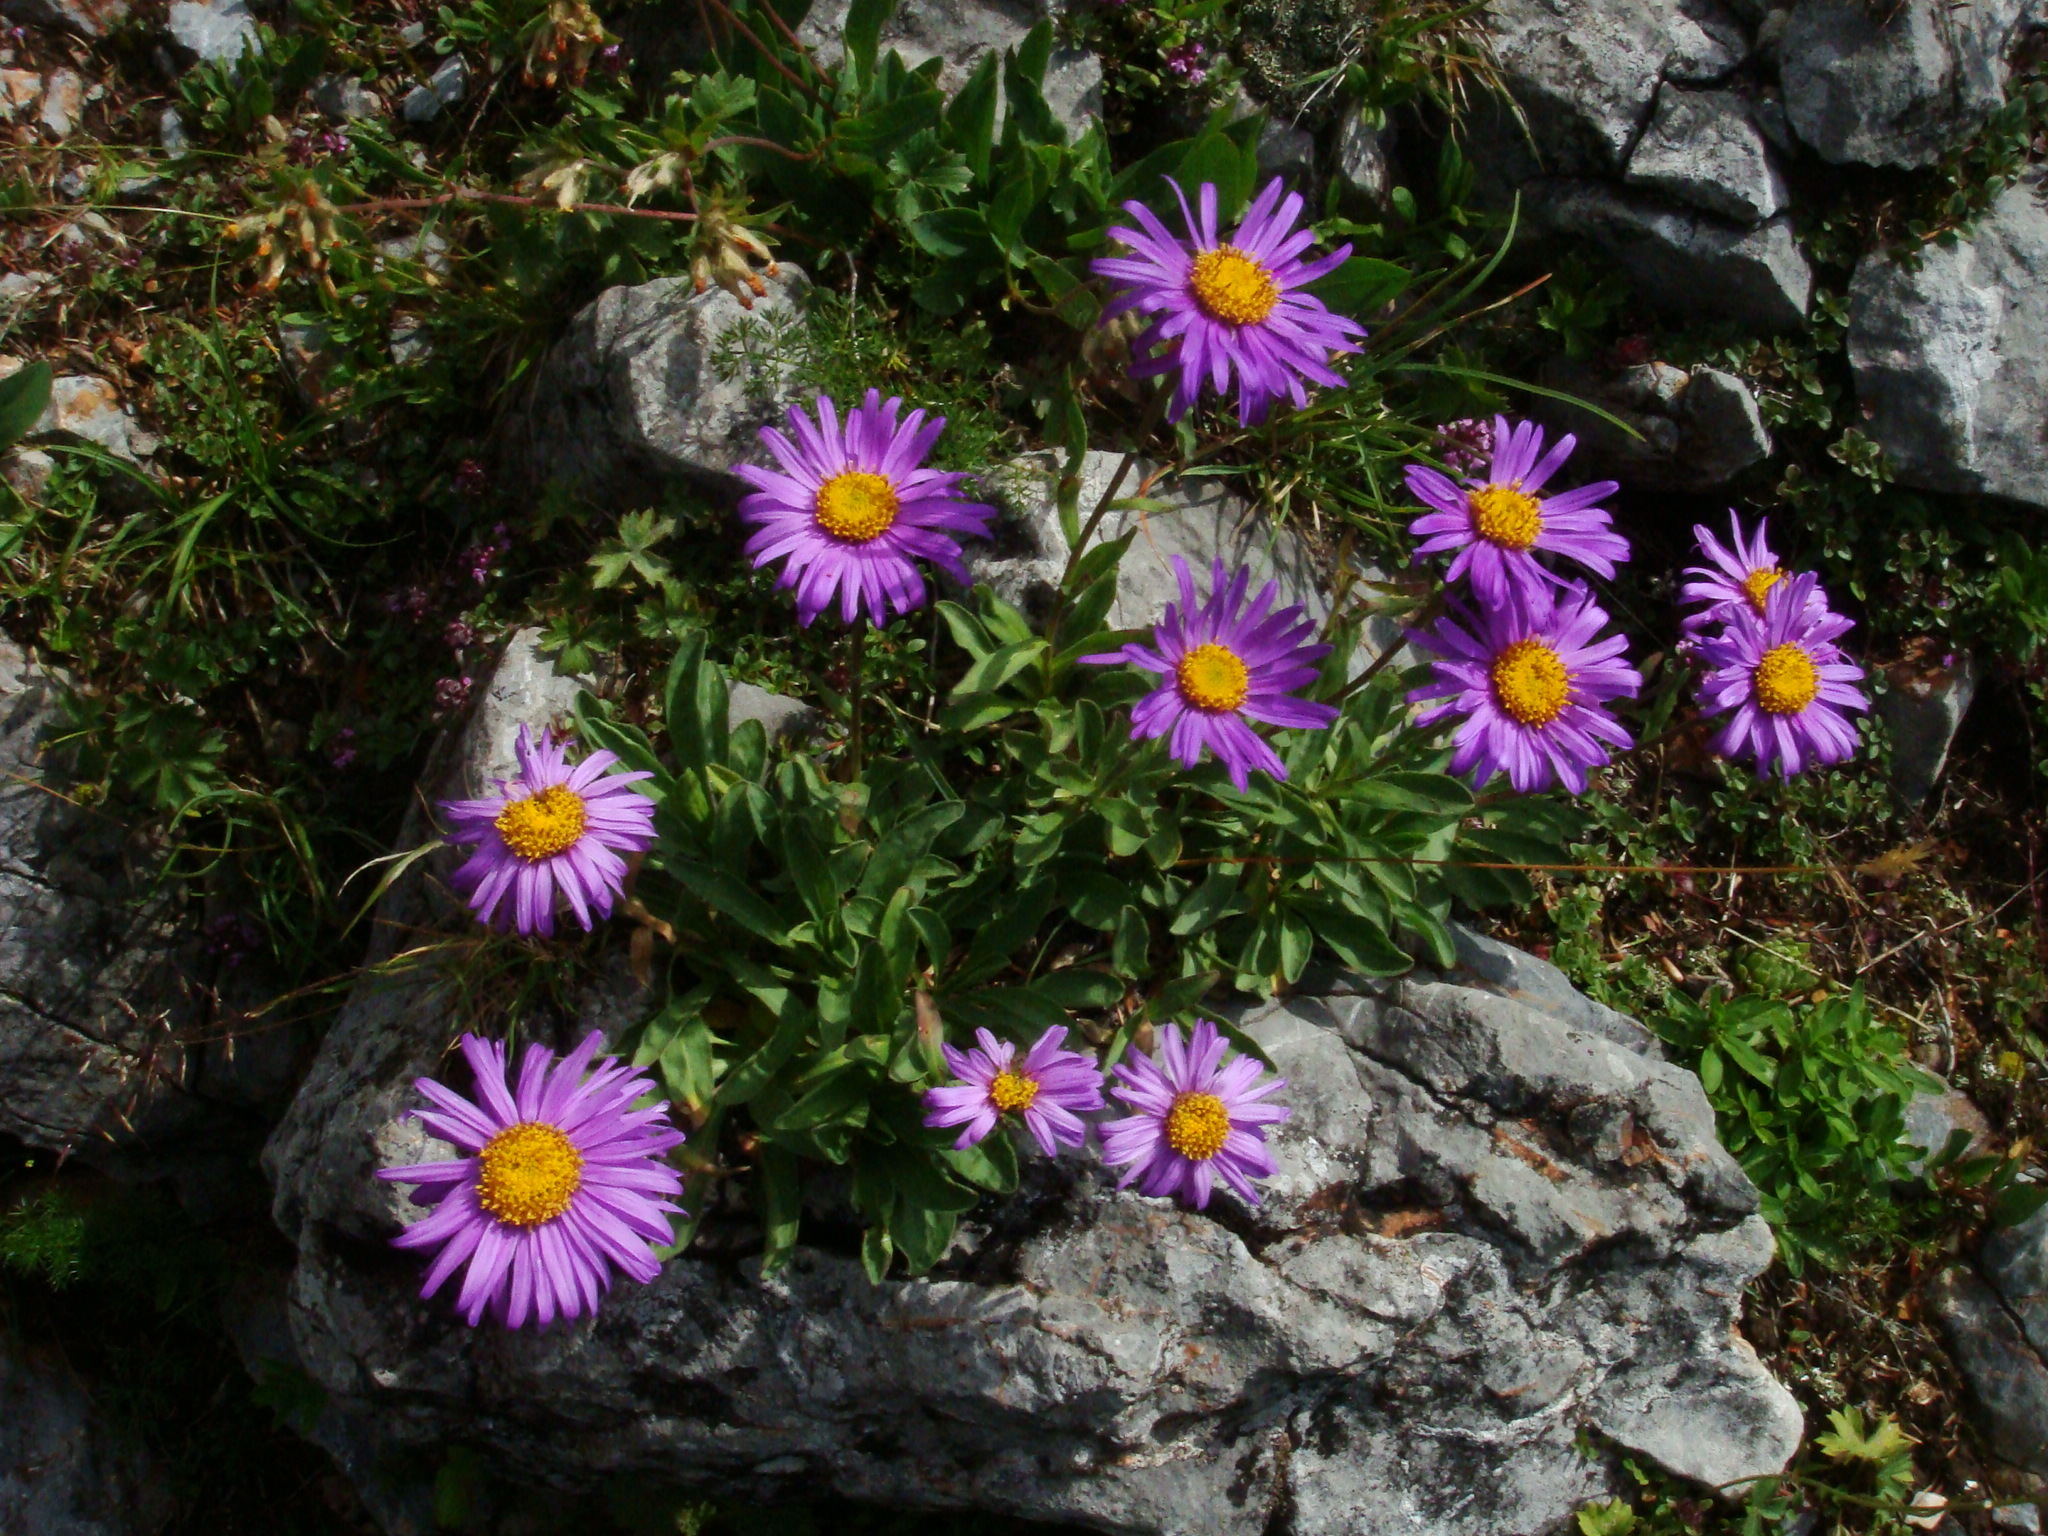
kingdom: Plantae
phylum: Tracheophyta
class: Magnoliopsida
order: Asterales
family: Asteraceae
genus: Aster
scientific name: Aster alpinus
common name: Alpine aster
